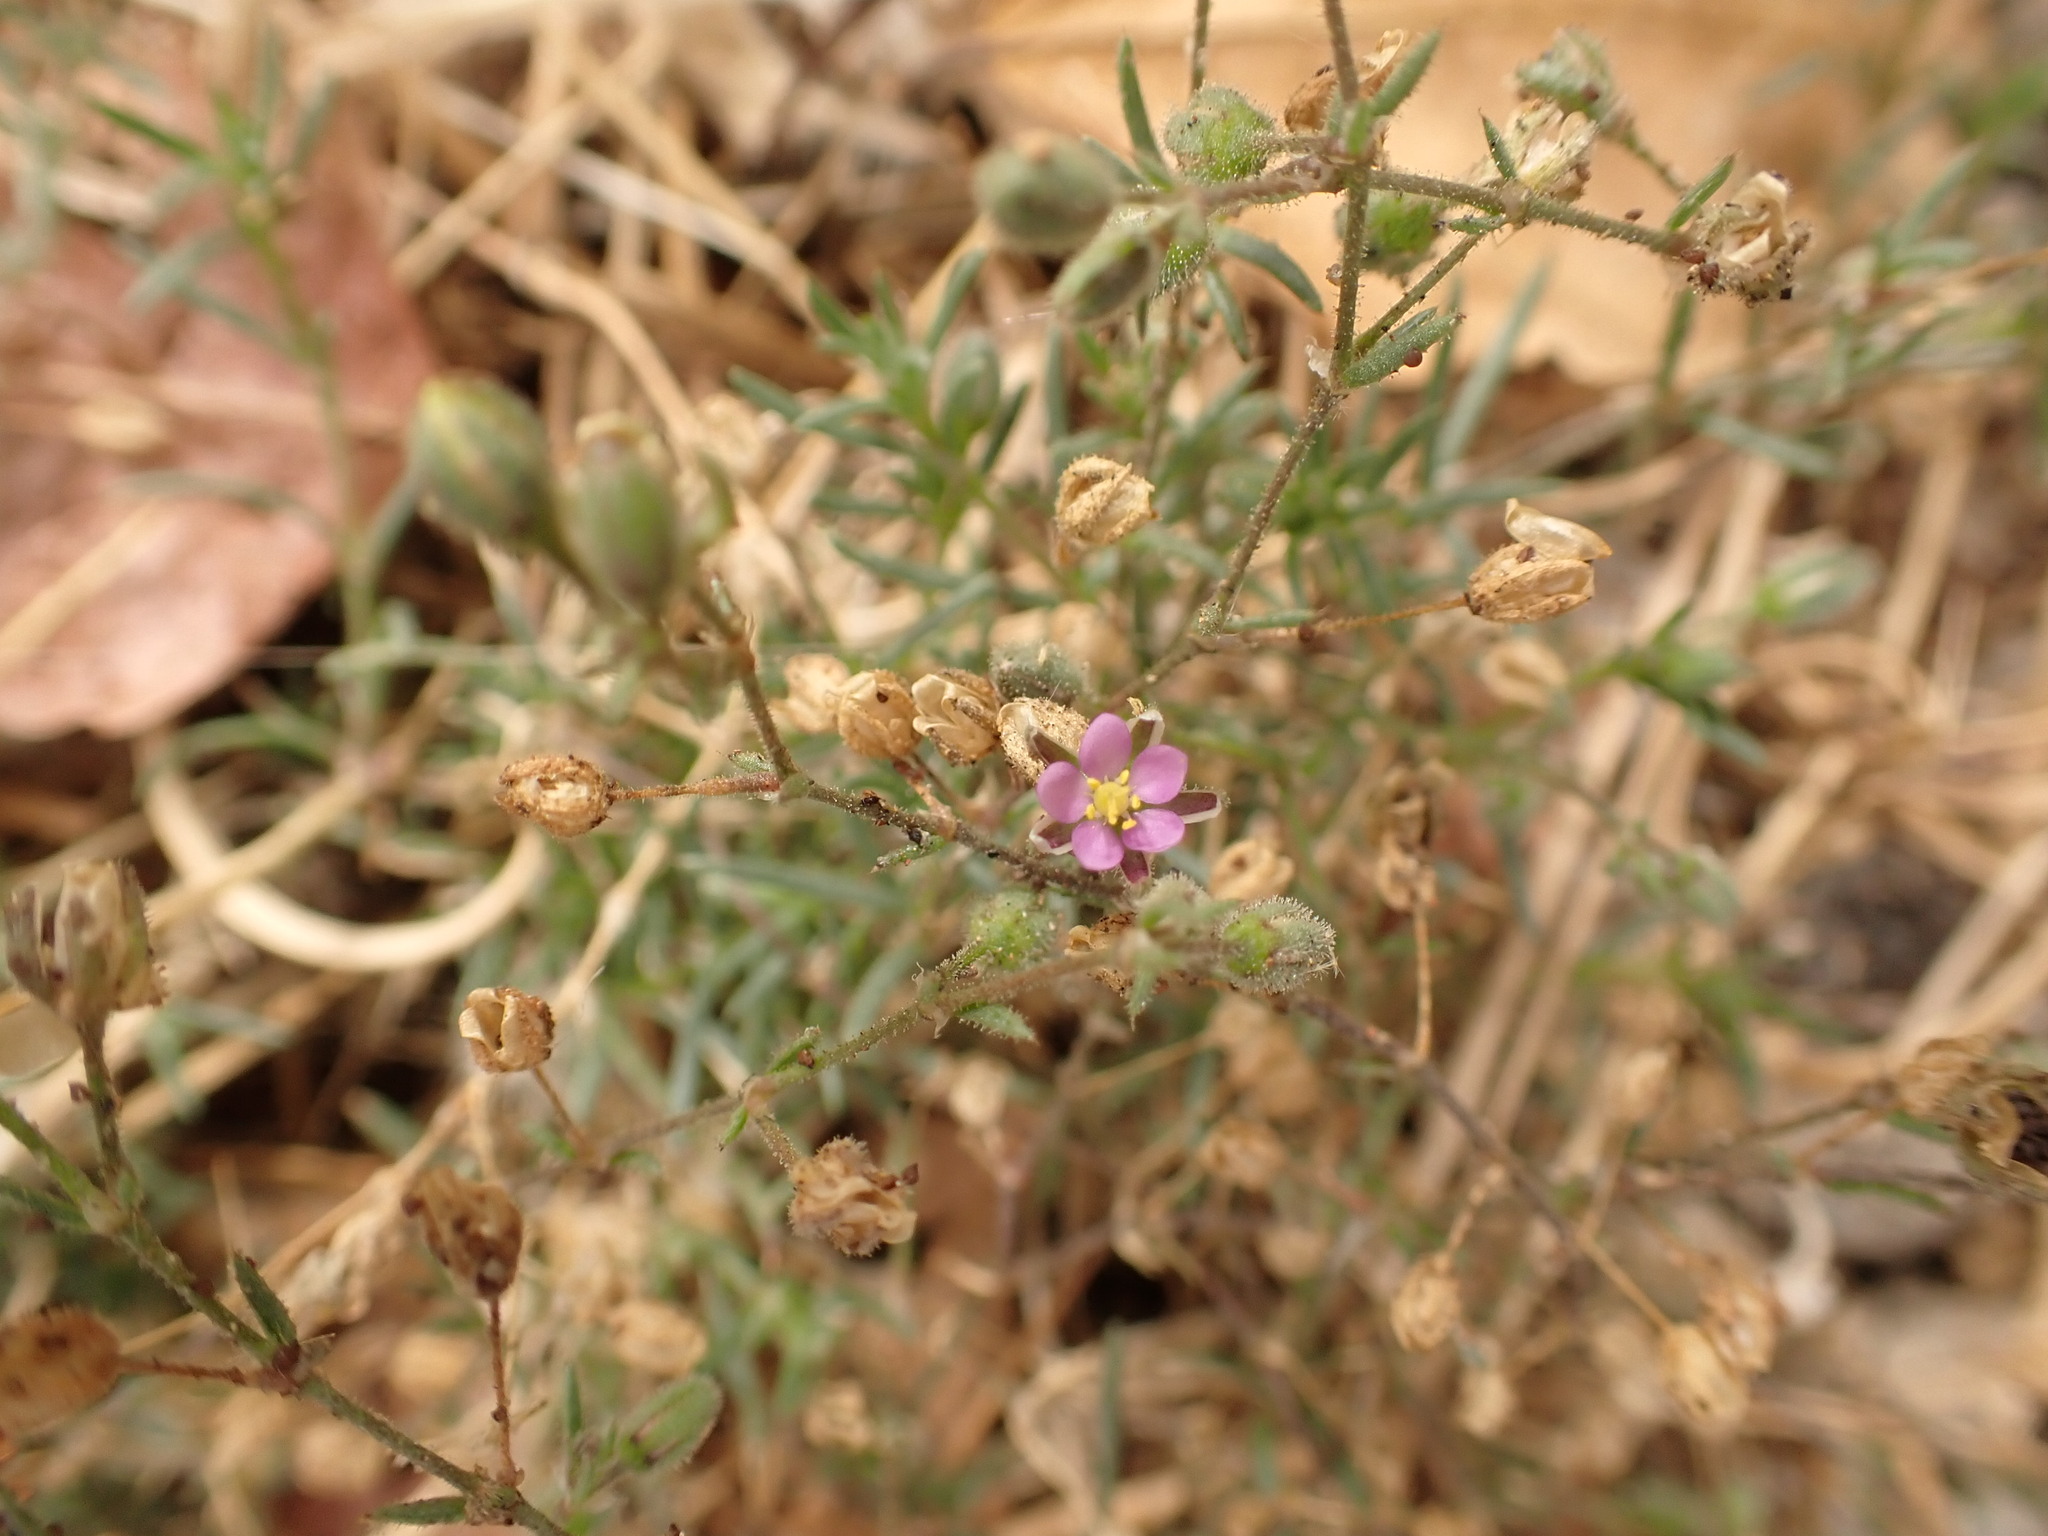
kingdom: Plantae
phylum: Tracheophyta
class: Magnoliopsida
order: Caryophyllales
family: Caryophyllaceae
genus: Spergularia
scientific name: Spergularia rubra
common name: Red sand-spurrey
